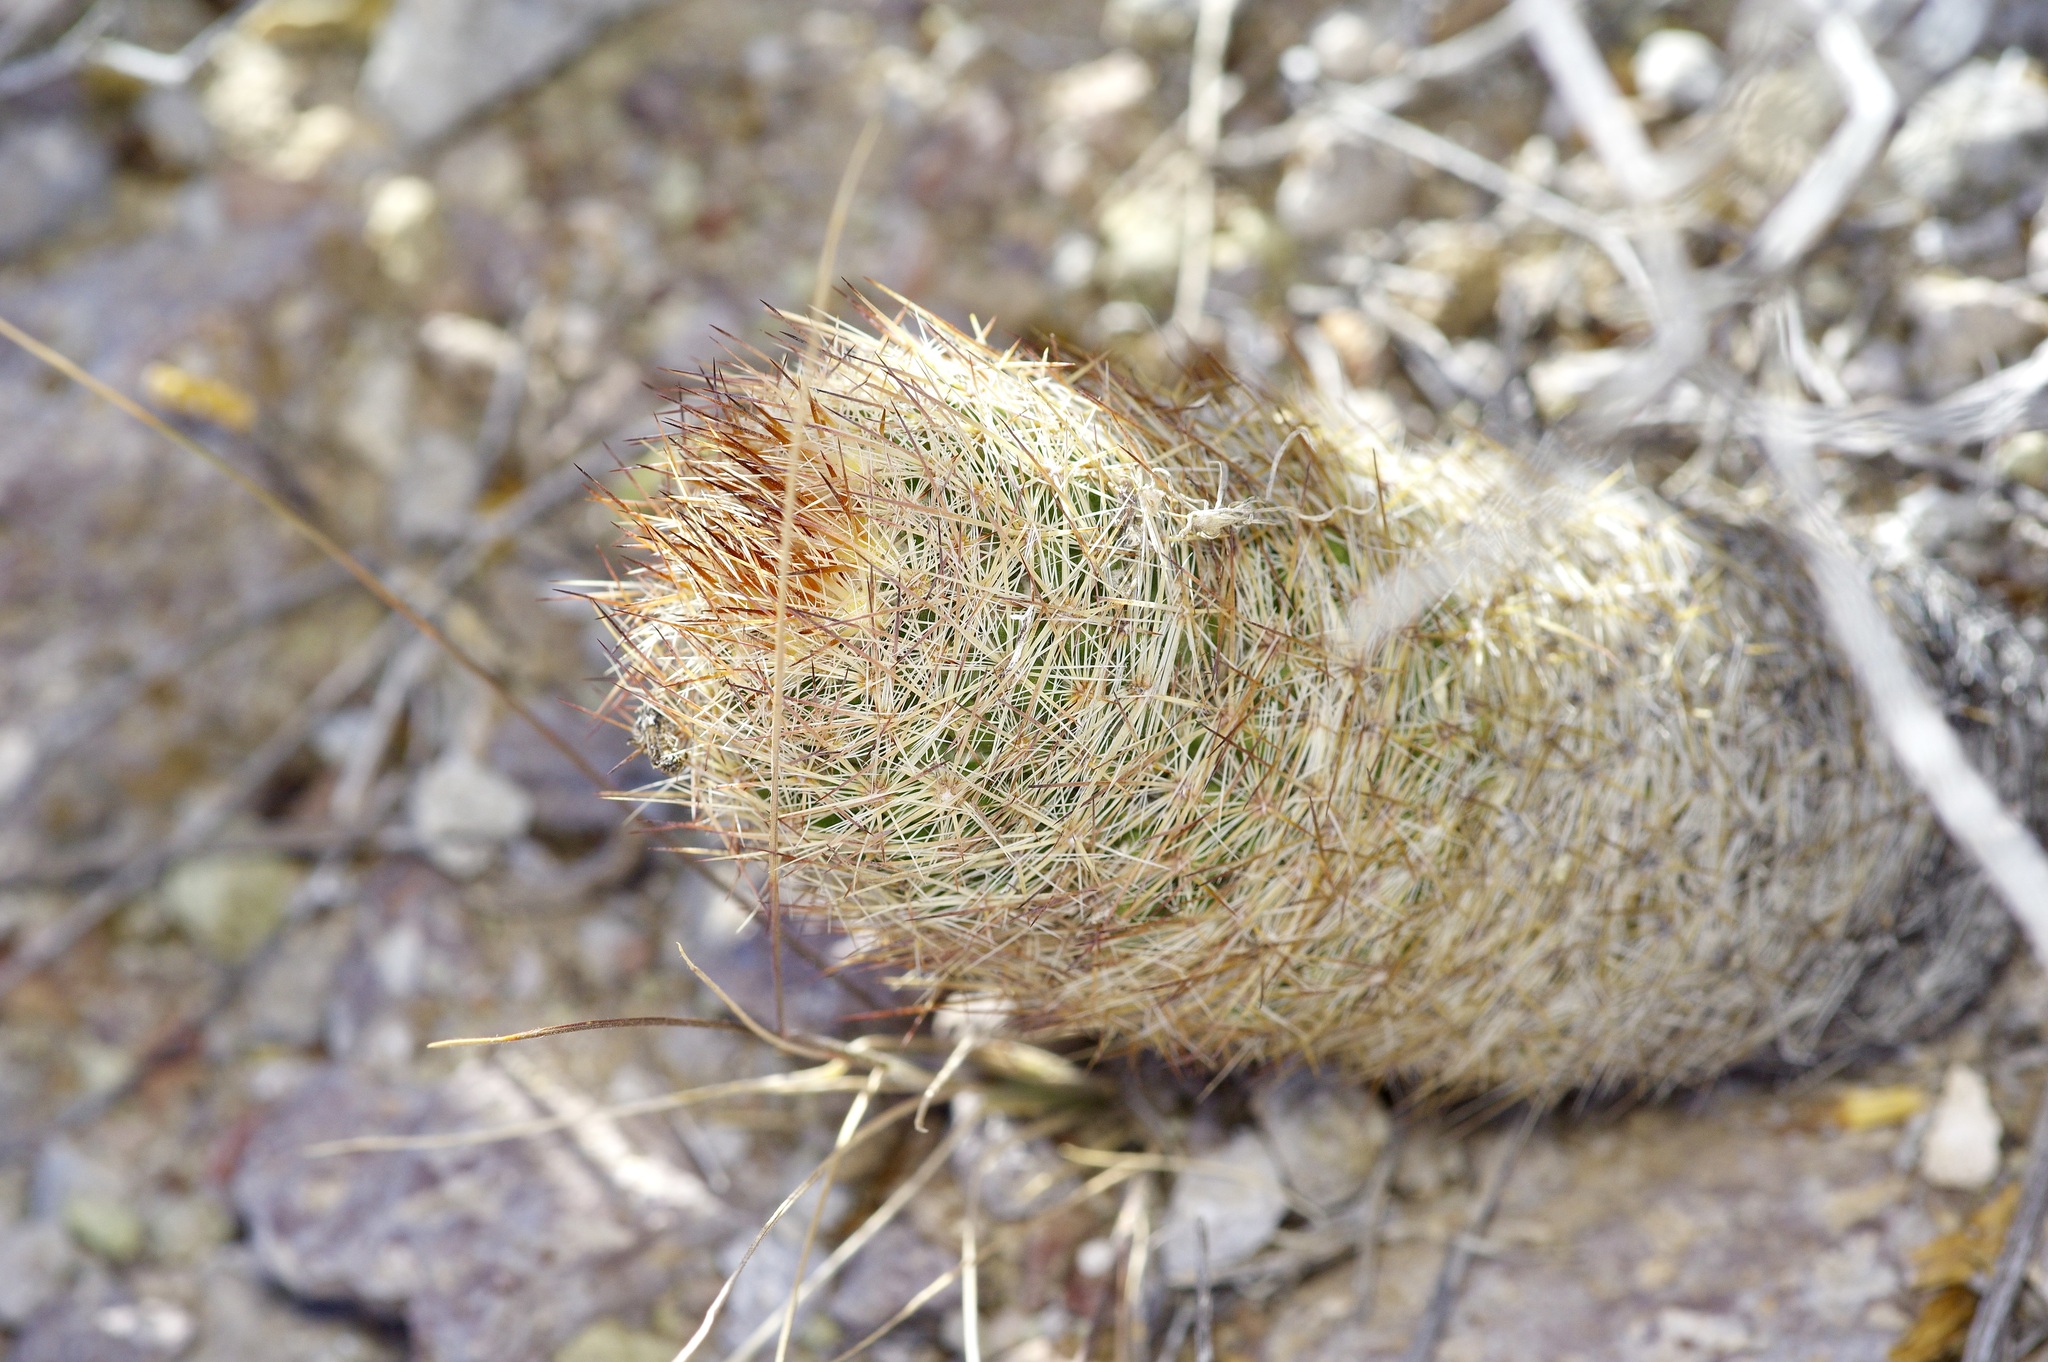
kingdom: Plantae
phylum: Tracheophyta
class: Magnoliopsida
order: Caryophyllales
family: Cactaceae
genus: Pelecyphora
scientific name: Pelecyphora dasyacantha
